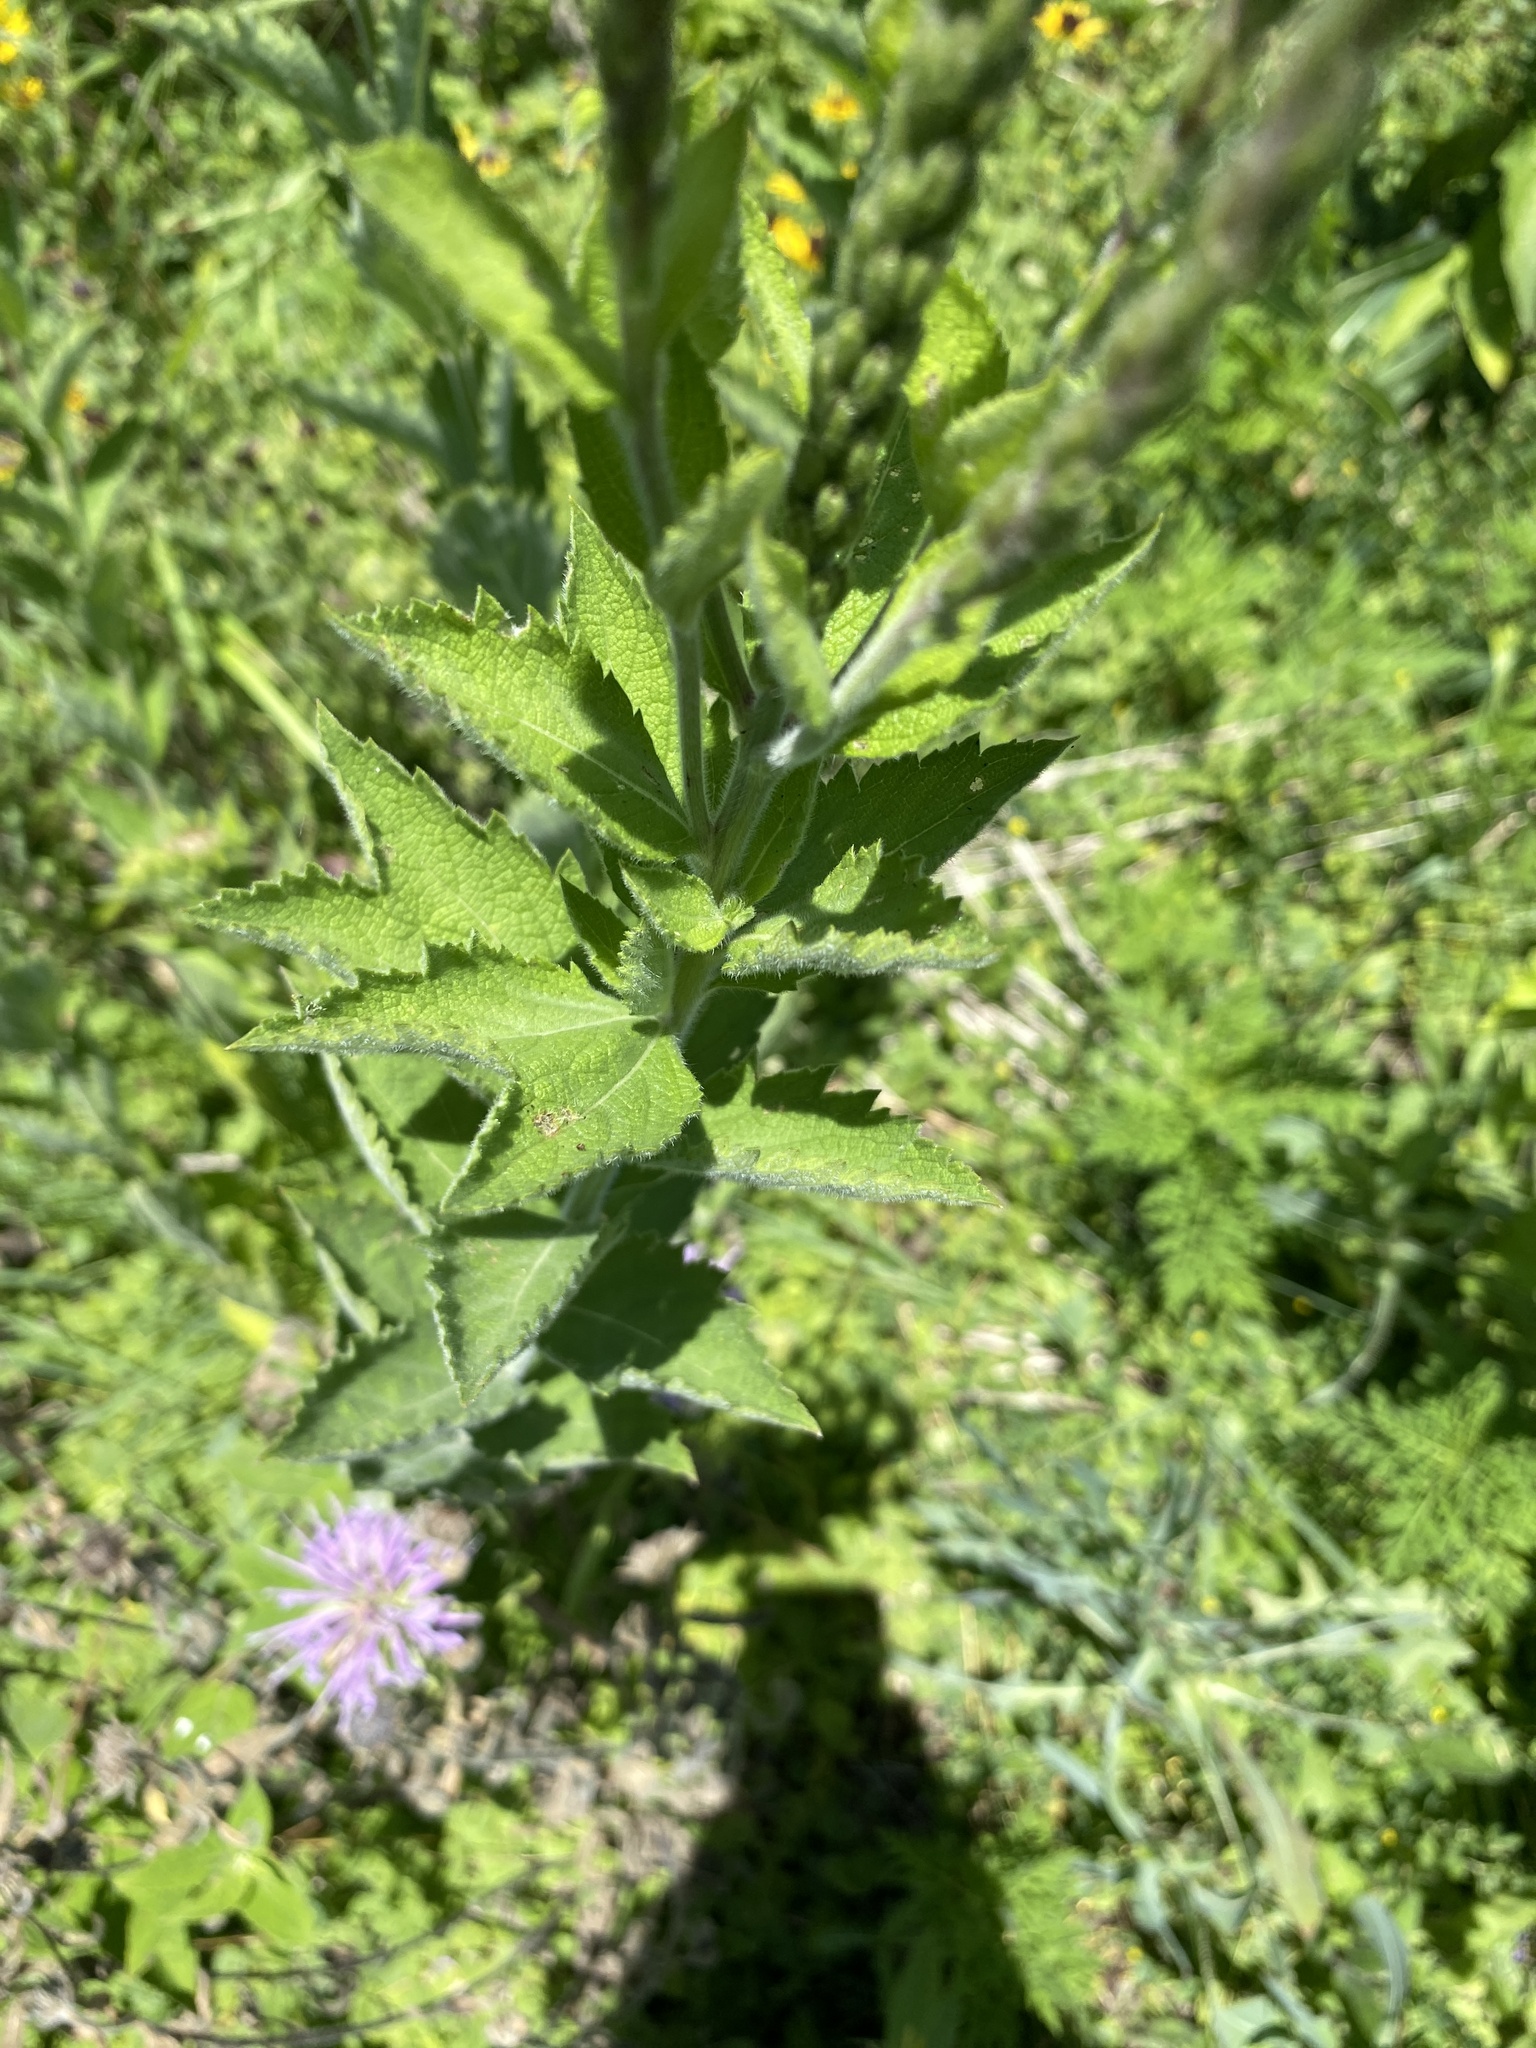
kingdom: Plantae
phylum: Tracheophyta
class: Magnoliopsida
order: Lamiales
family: Verbenaceae
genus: Verbena
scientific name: Verbena stricta
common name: Hoary vervain
